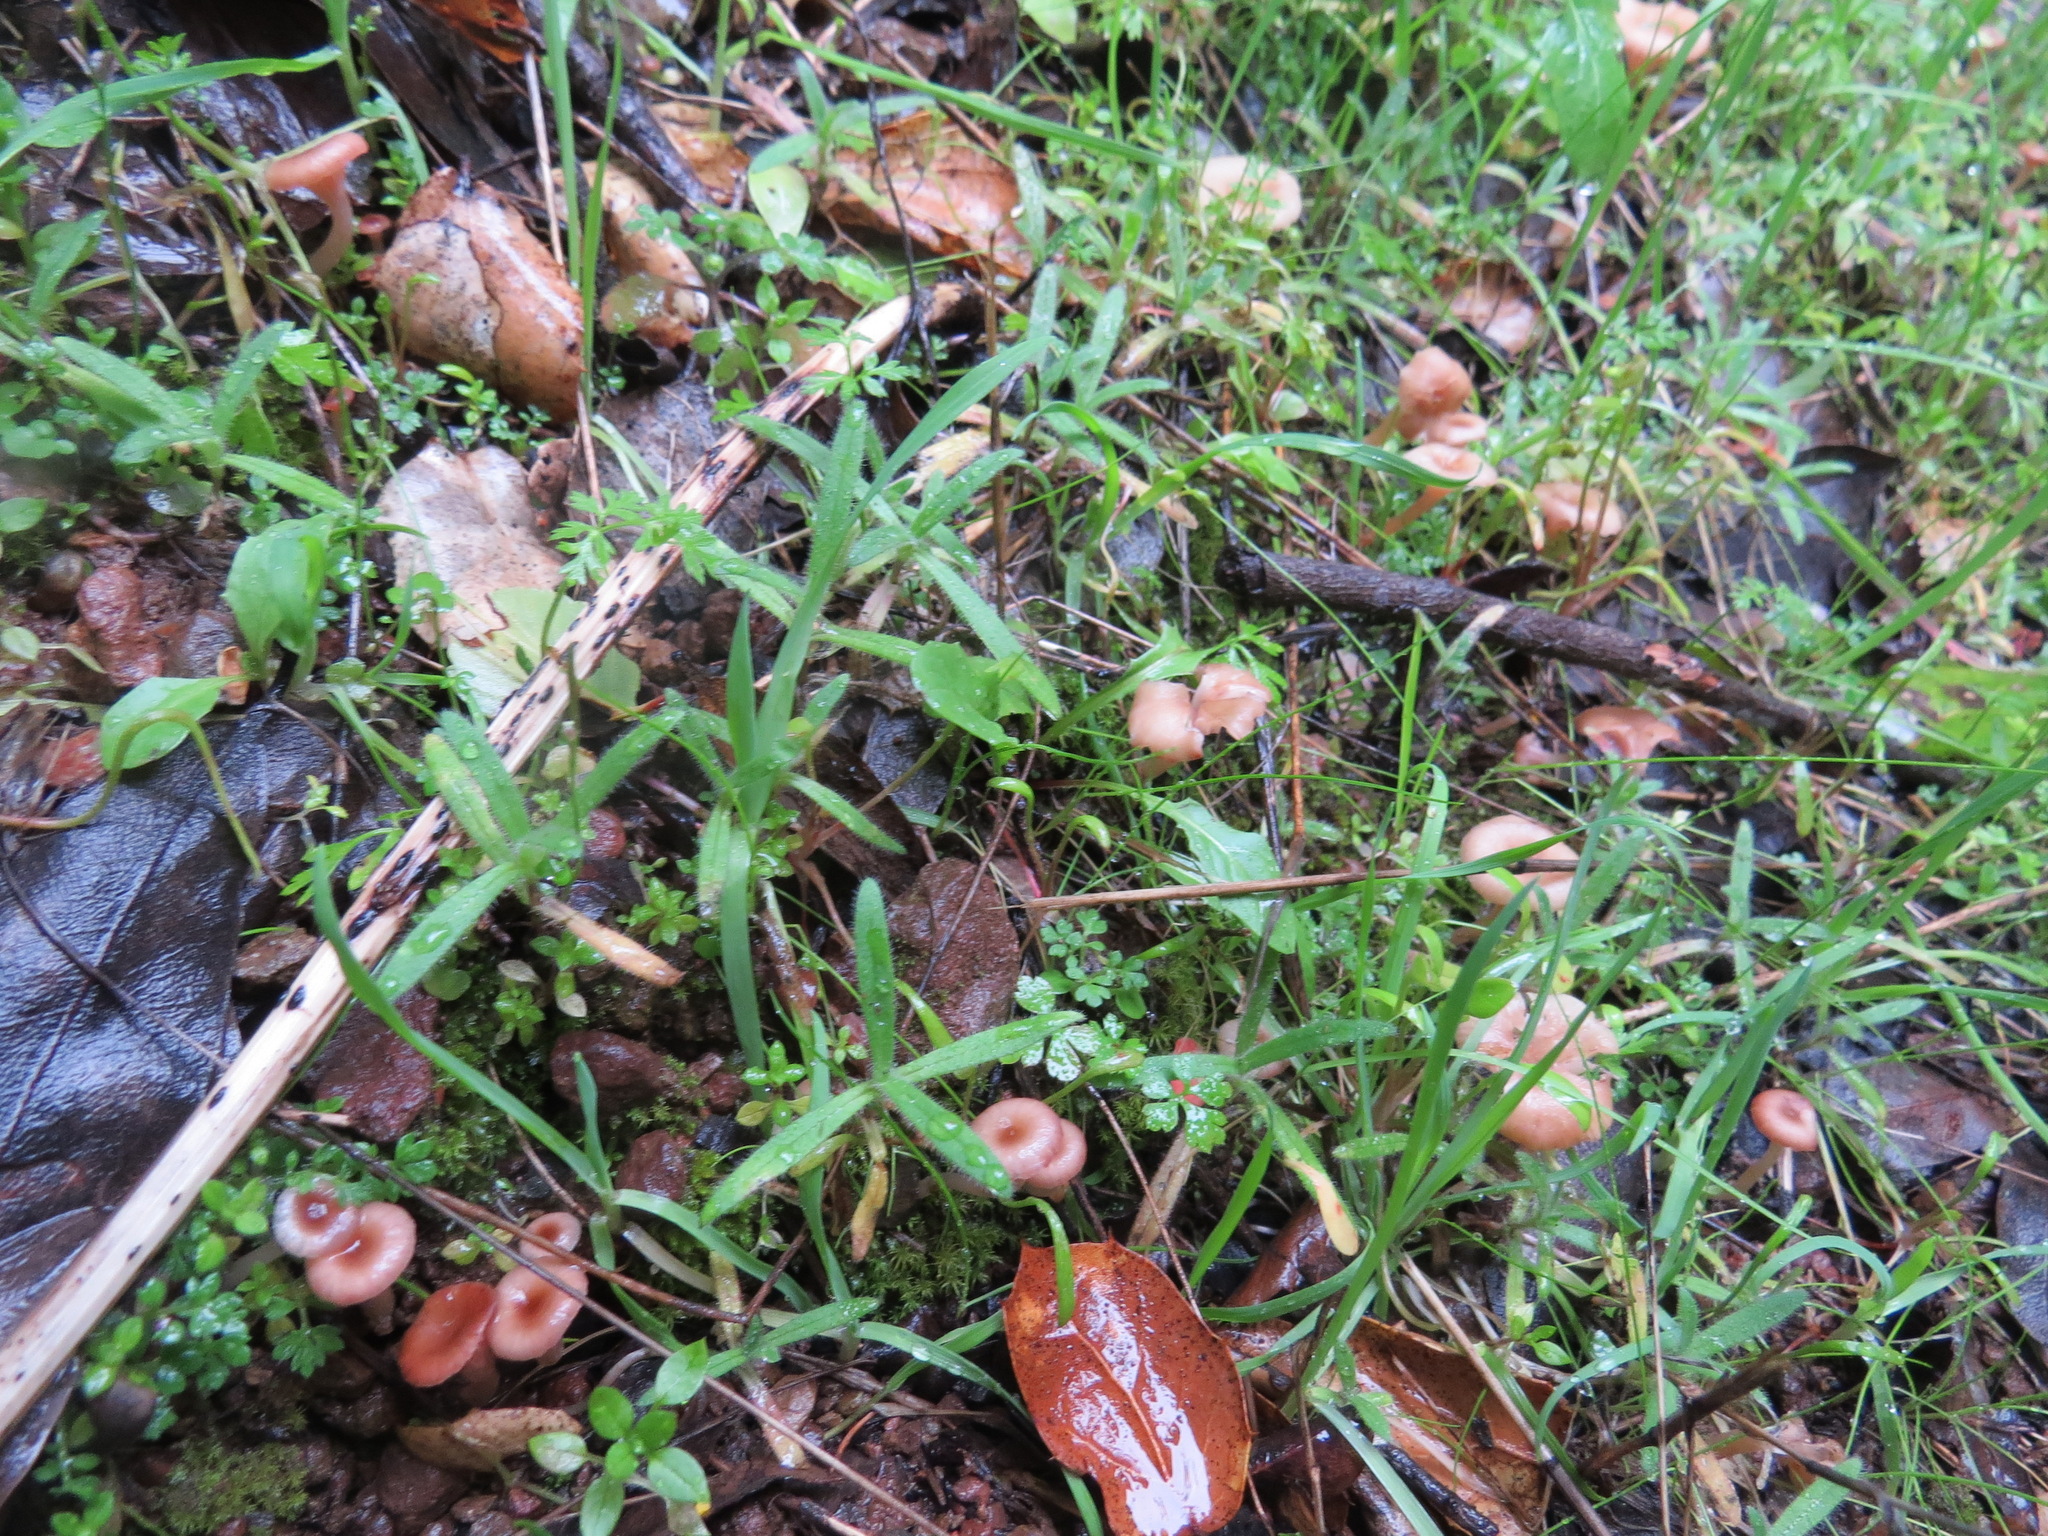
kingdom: Fungi
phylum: Basidiomycota
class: Agaricomycetes
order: Hymenochaetales
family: Rickenellaceae
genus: Contumyces
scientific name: Contumyces rosellus
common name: Rosy navel
